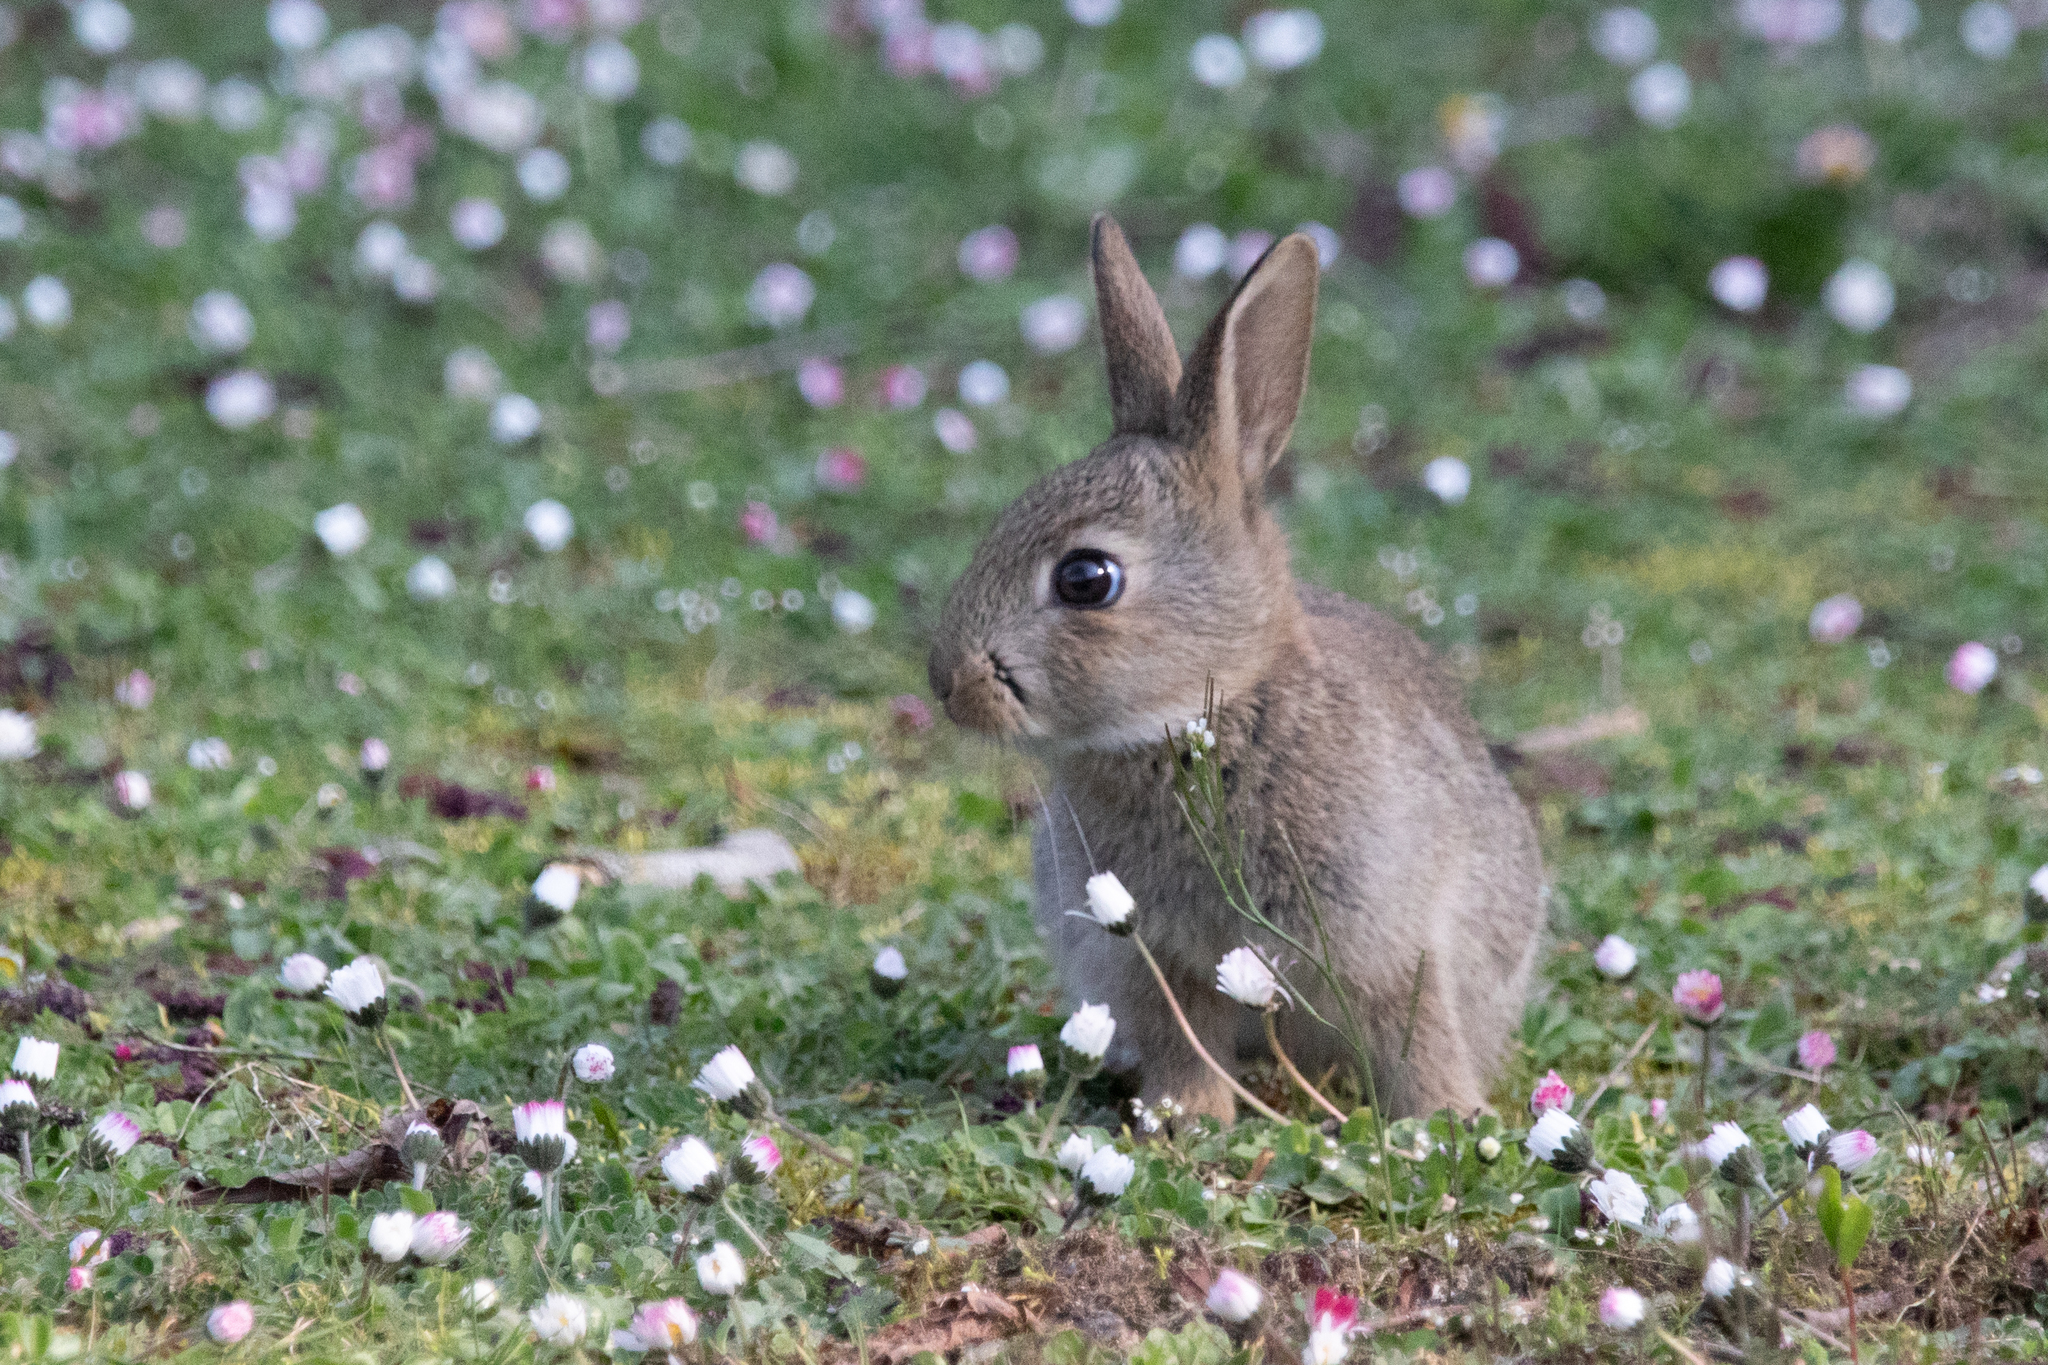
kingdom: Animalia
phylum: Chordata
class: Mammalia
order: Lagomorpha
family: Leporidae
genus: Oryctolagus
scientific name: Oryctolagus cuniculus
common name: European rabbit
